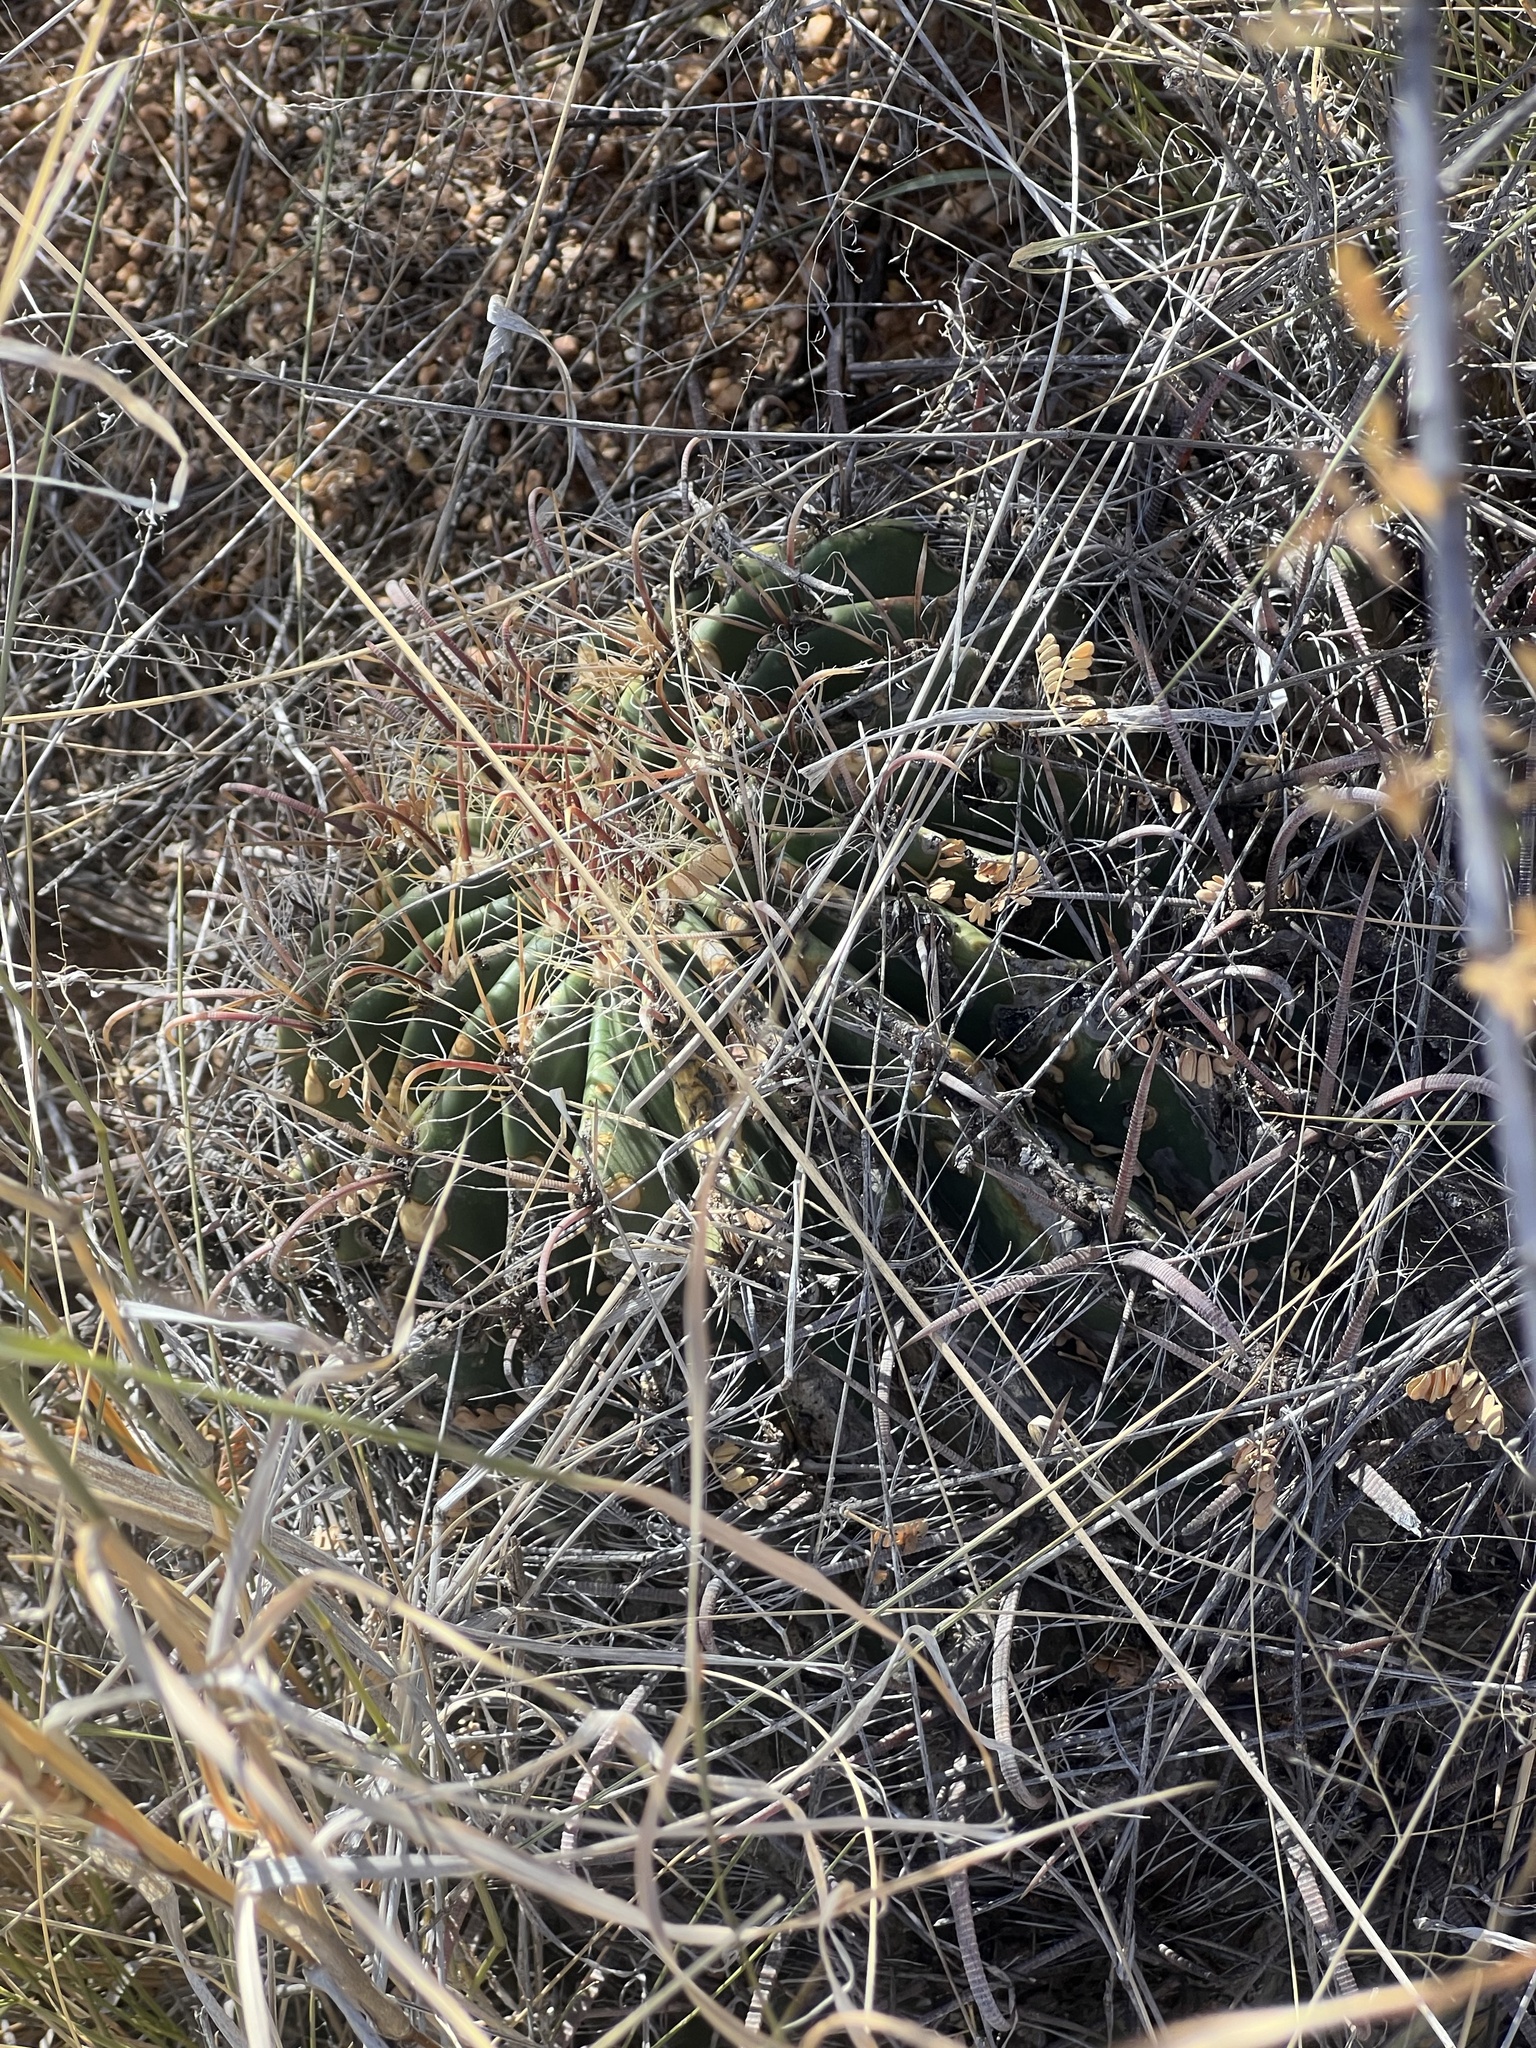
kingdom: Plantae
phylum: Tracheophyta
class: Magnoliopsida
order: Caryophyllales
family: Cactaceae
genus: Ferocactus
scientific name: Ferocactus wislizeni
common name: Candy barrel cactus
